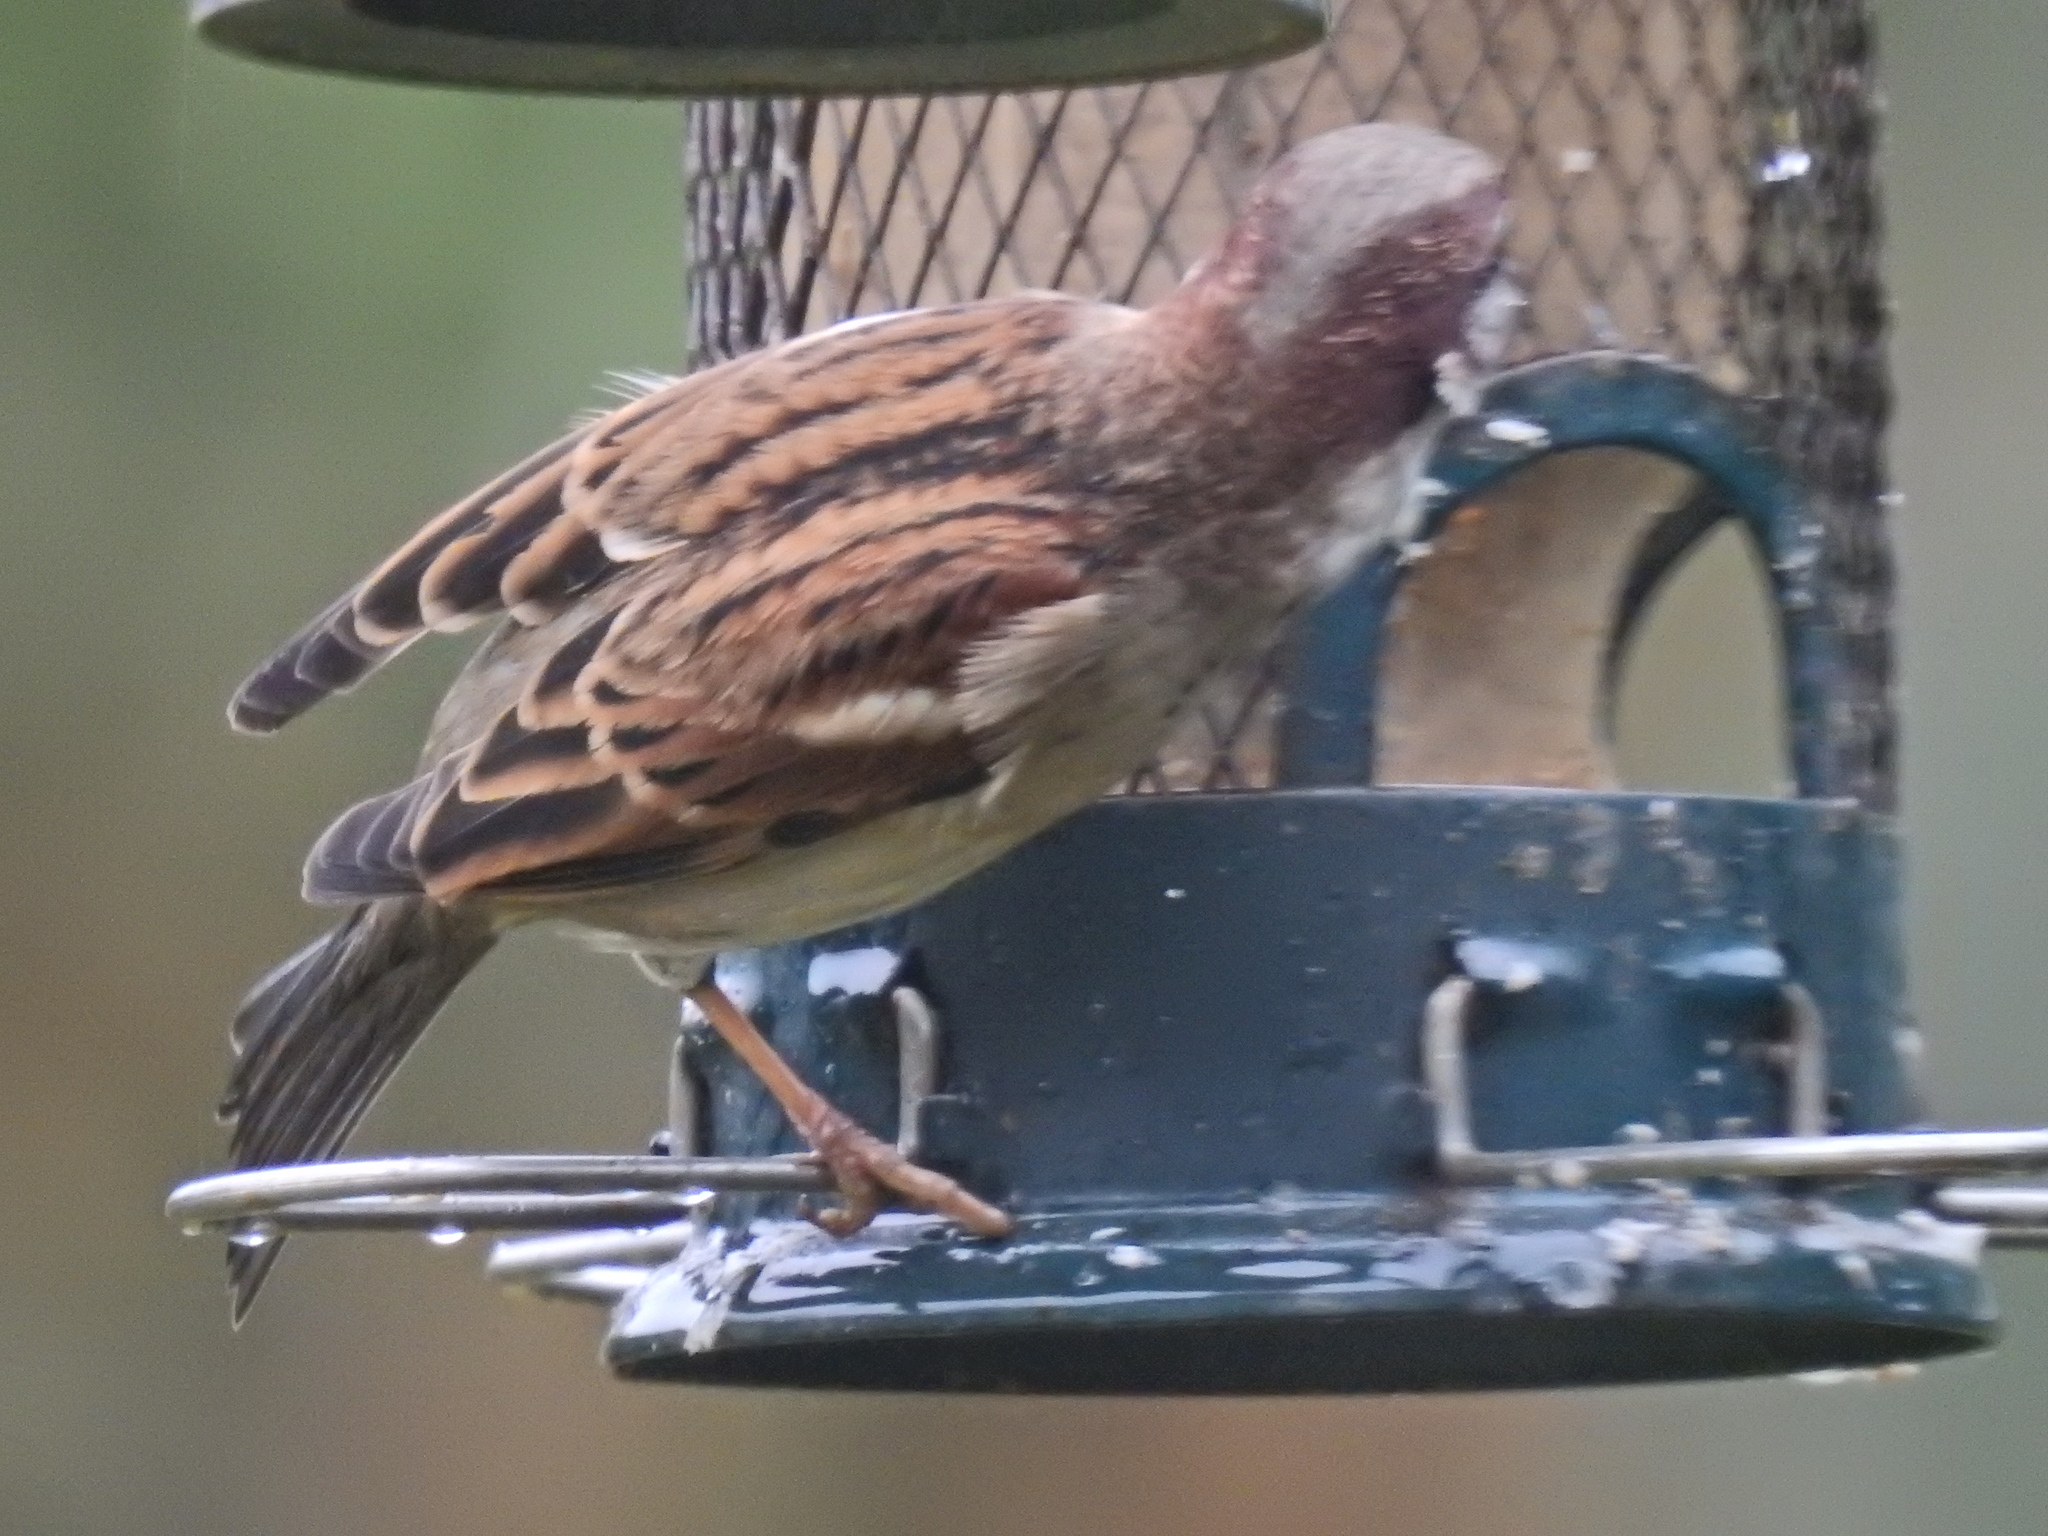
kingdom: Animalia
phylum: Chordata
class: Aves
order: Passeriformes
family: Passeridae
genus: Passer
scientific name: Passer domesticus
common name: House sparrow
